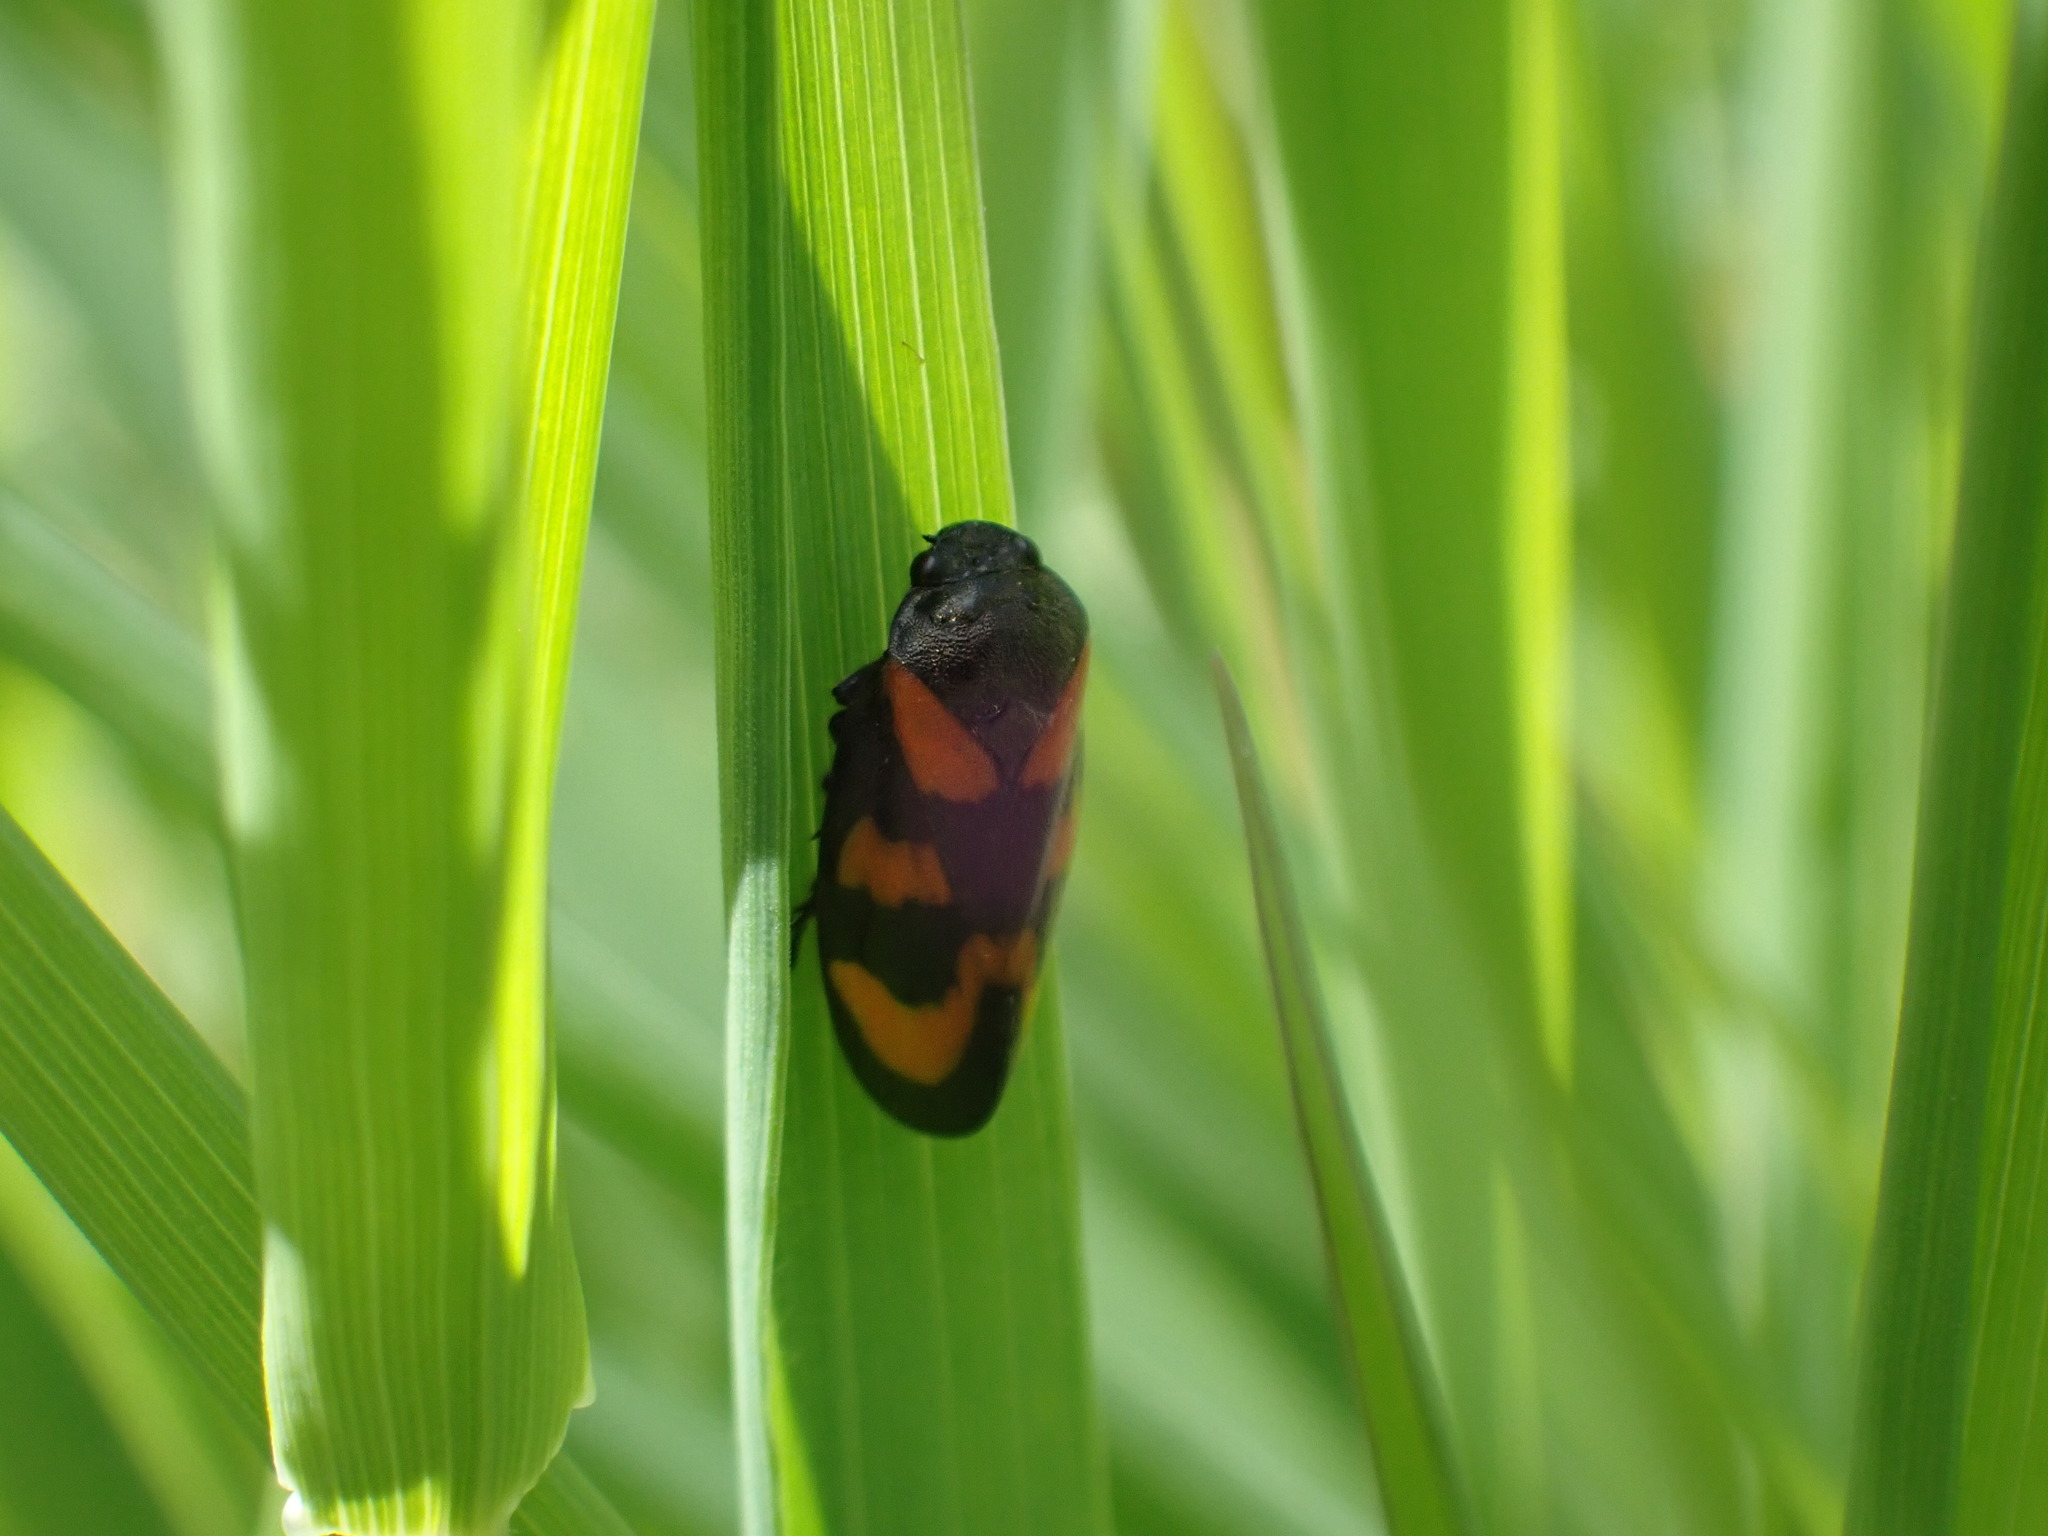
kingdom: Animalia
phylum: Arthropoda
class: Insecta
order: Hemiptera
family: Cercopidae
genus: Cercopis
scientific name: Cercopis vulnerata
